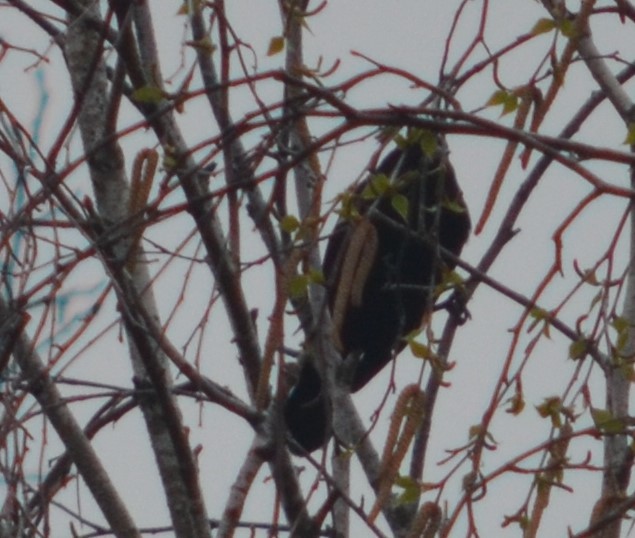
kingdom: Animalia
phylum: Chordata
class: Aves
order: Passeriformes
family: Icteridae
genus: Agelaius
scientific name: Agelaius phoeniceus
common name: Red-winged blackbird
